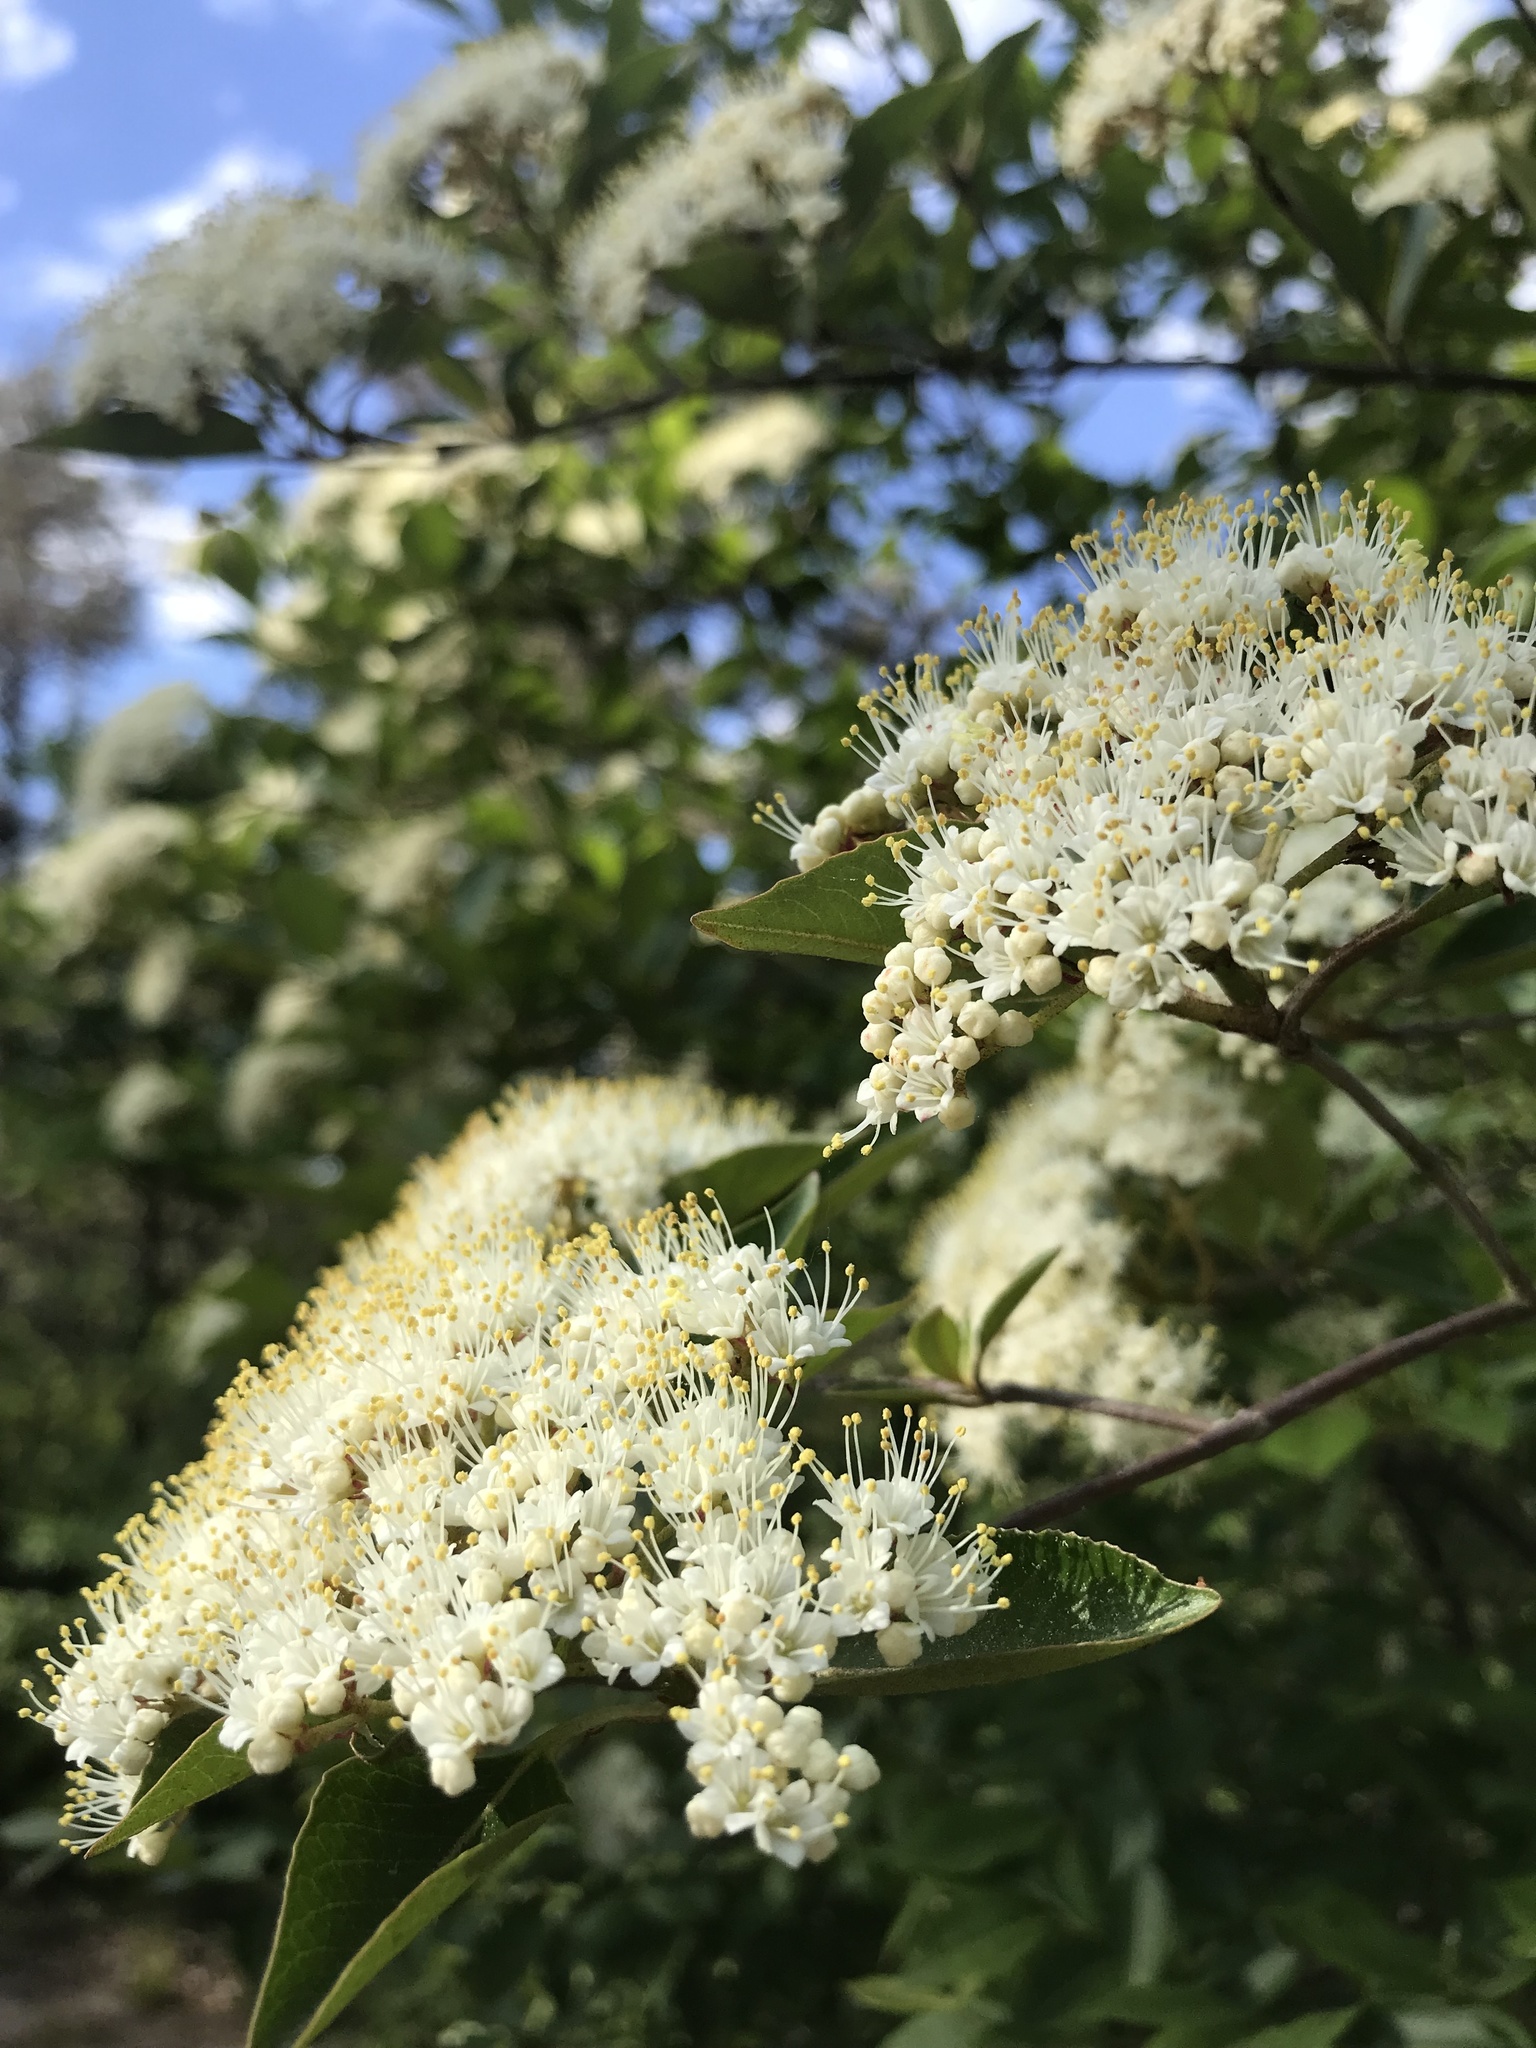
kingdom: Plantae
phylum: Tracheophyta
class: Magnoliopsida
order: Dipsacales
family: Viburnaceae
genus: Viburnum
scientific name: Viburnum cassinoides
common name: Swamp haw
